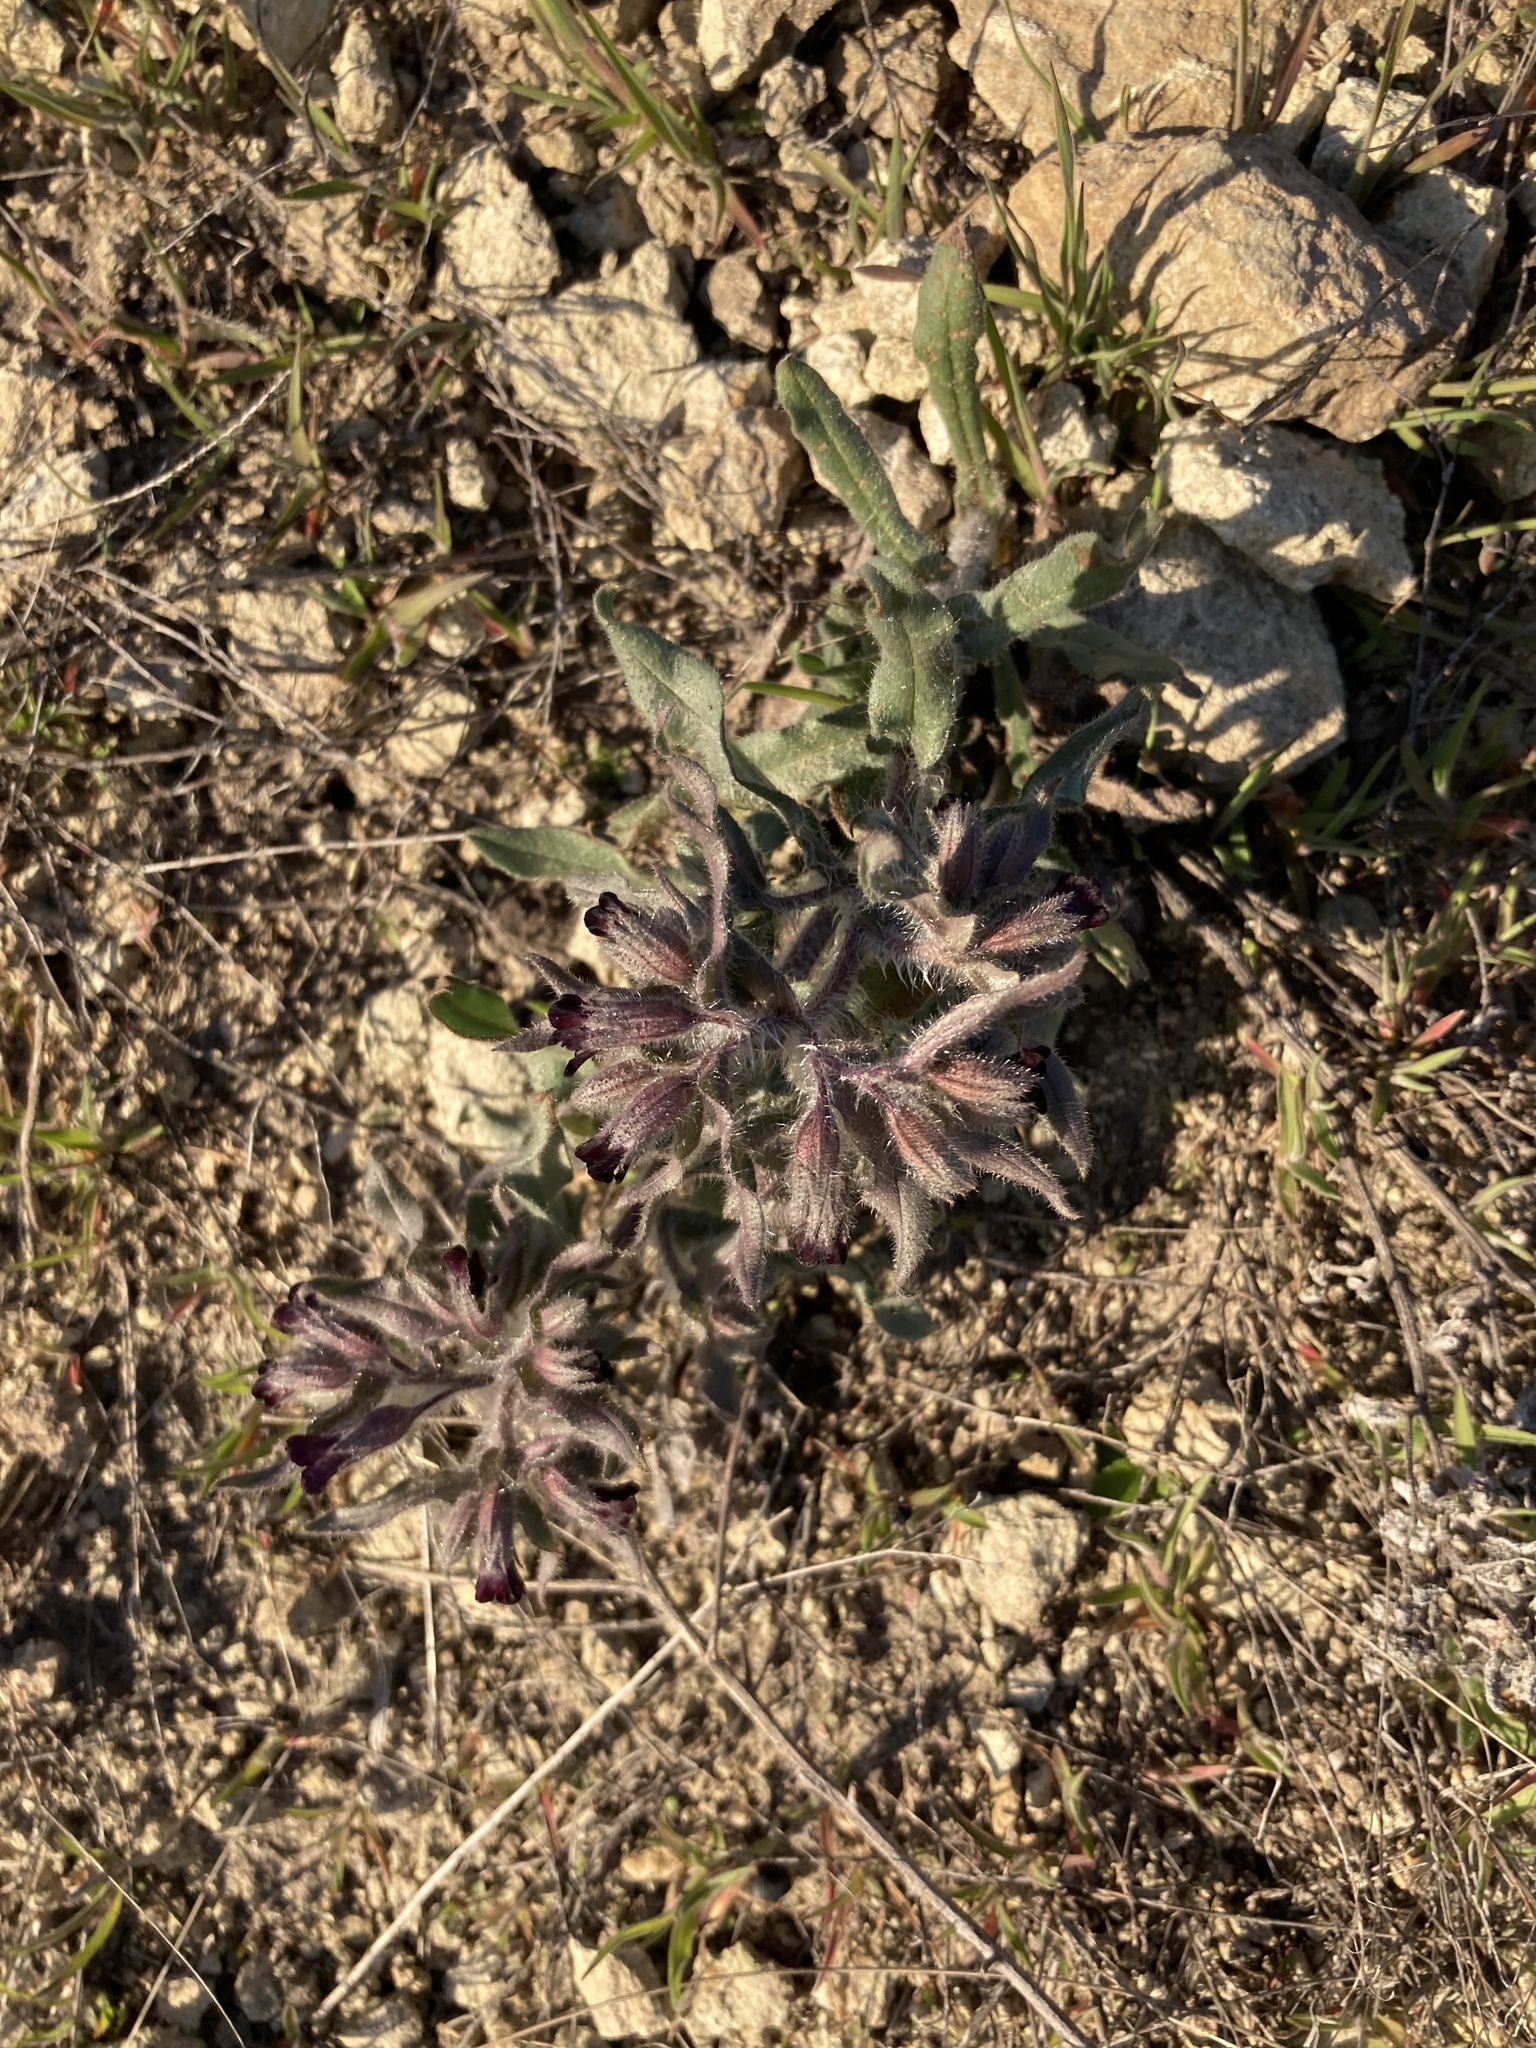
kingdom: Plantae
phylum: Tracheophyta
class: Magnoliopsida
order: Boraginales
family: Boraginaceae
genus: Nonea
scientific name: Nonea pulla
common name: Brown nonea
